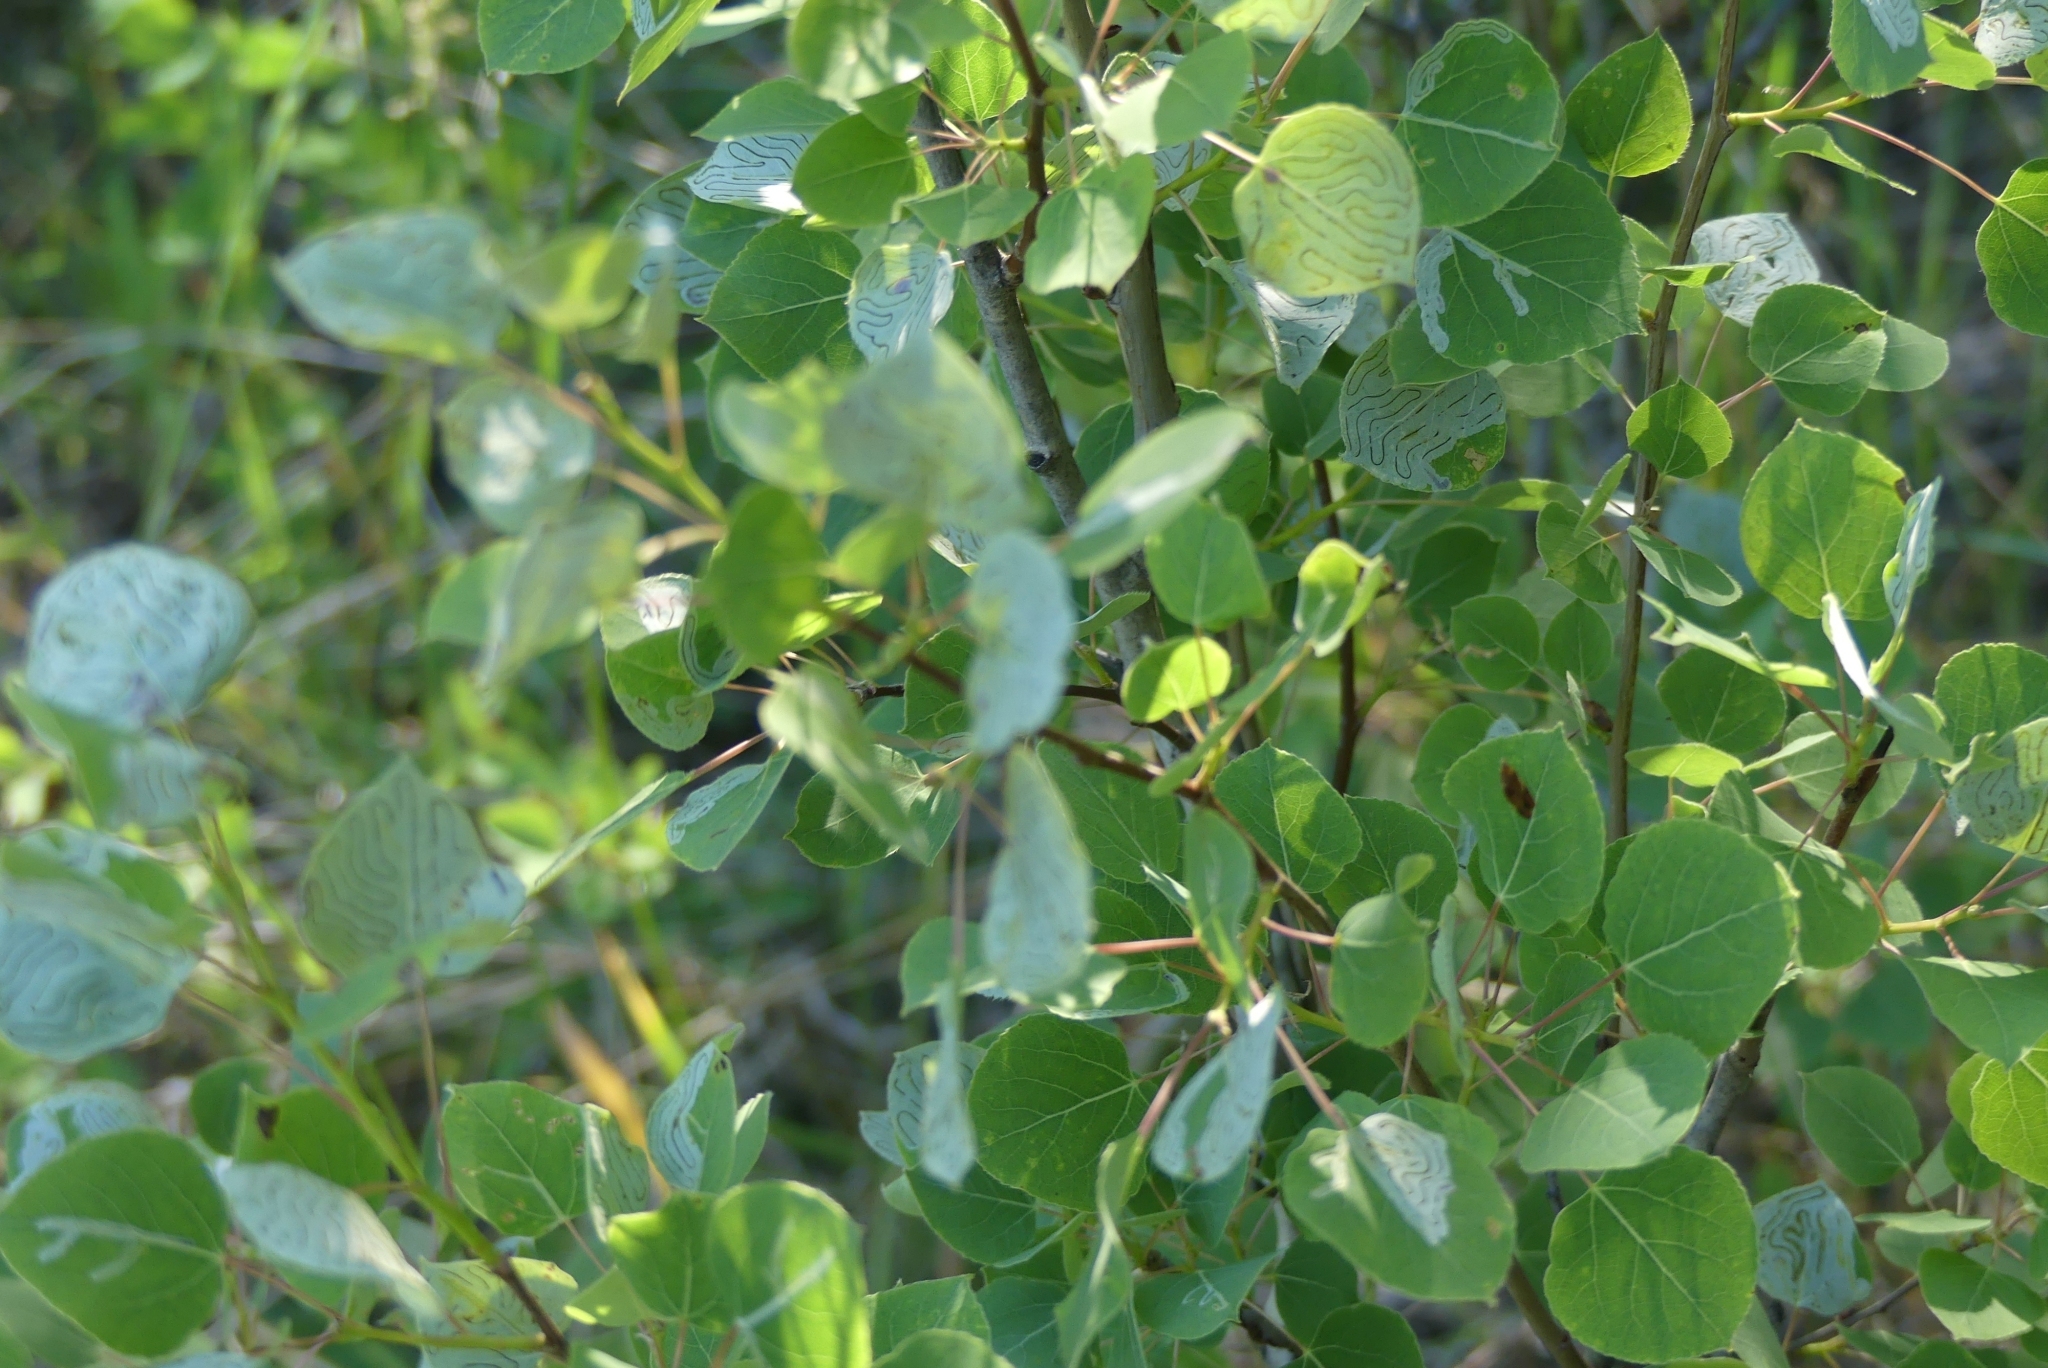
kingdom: Plantae
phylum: Tracheophyta
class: Magnoliopsida
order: Malpighiales
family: Salicaceae
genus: Populus
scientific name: Populus tremuloides
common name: Quaking aspen
